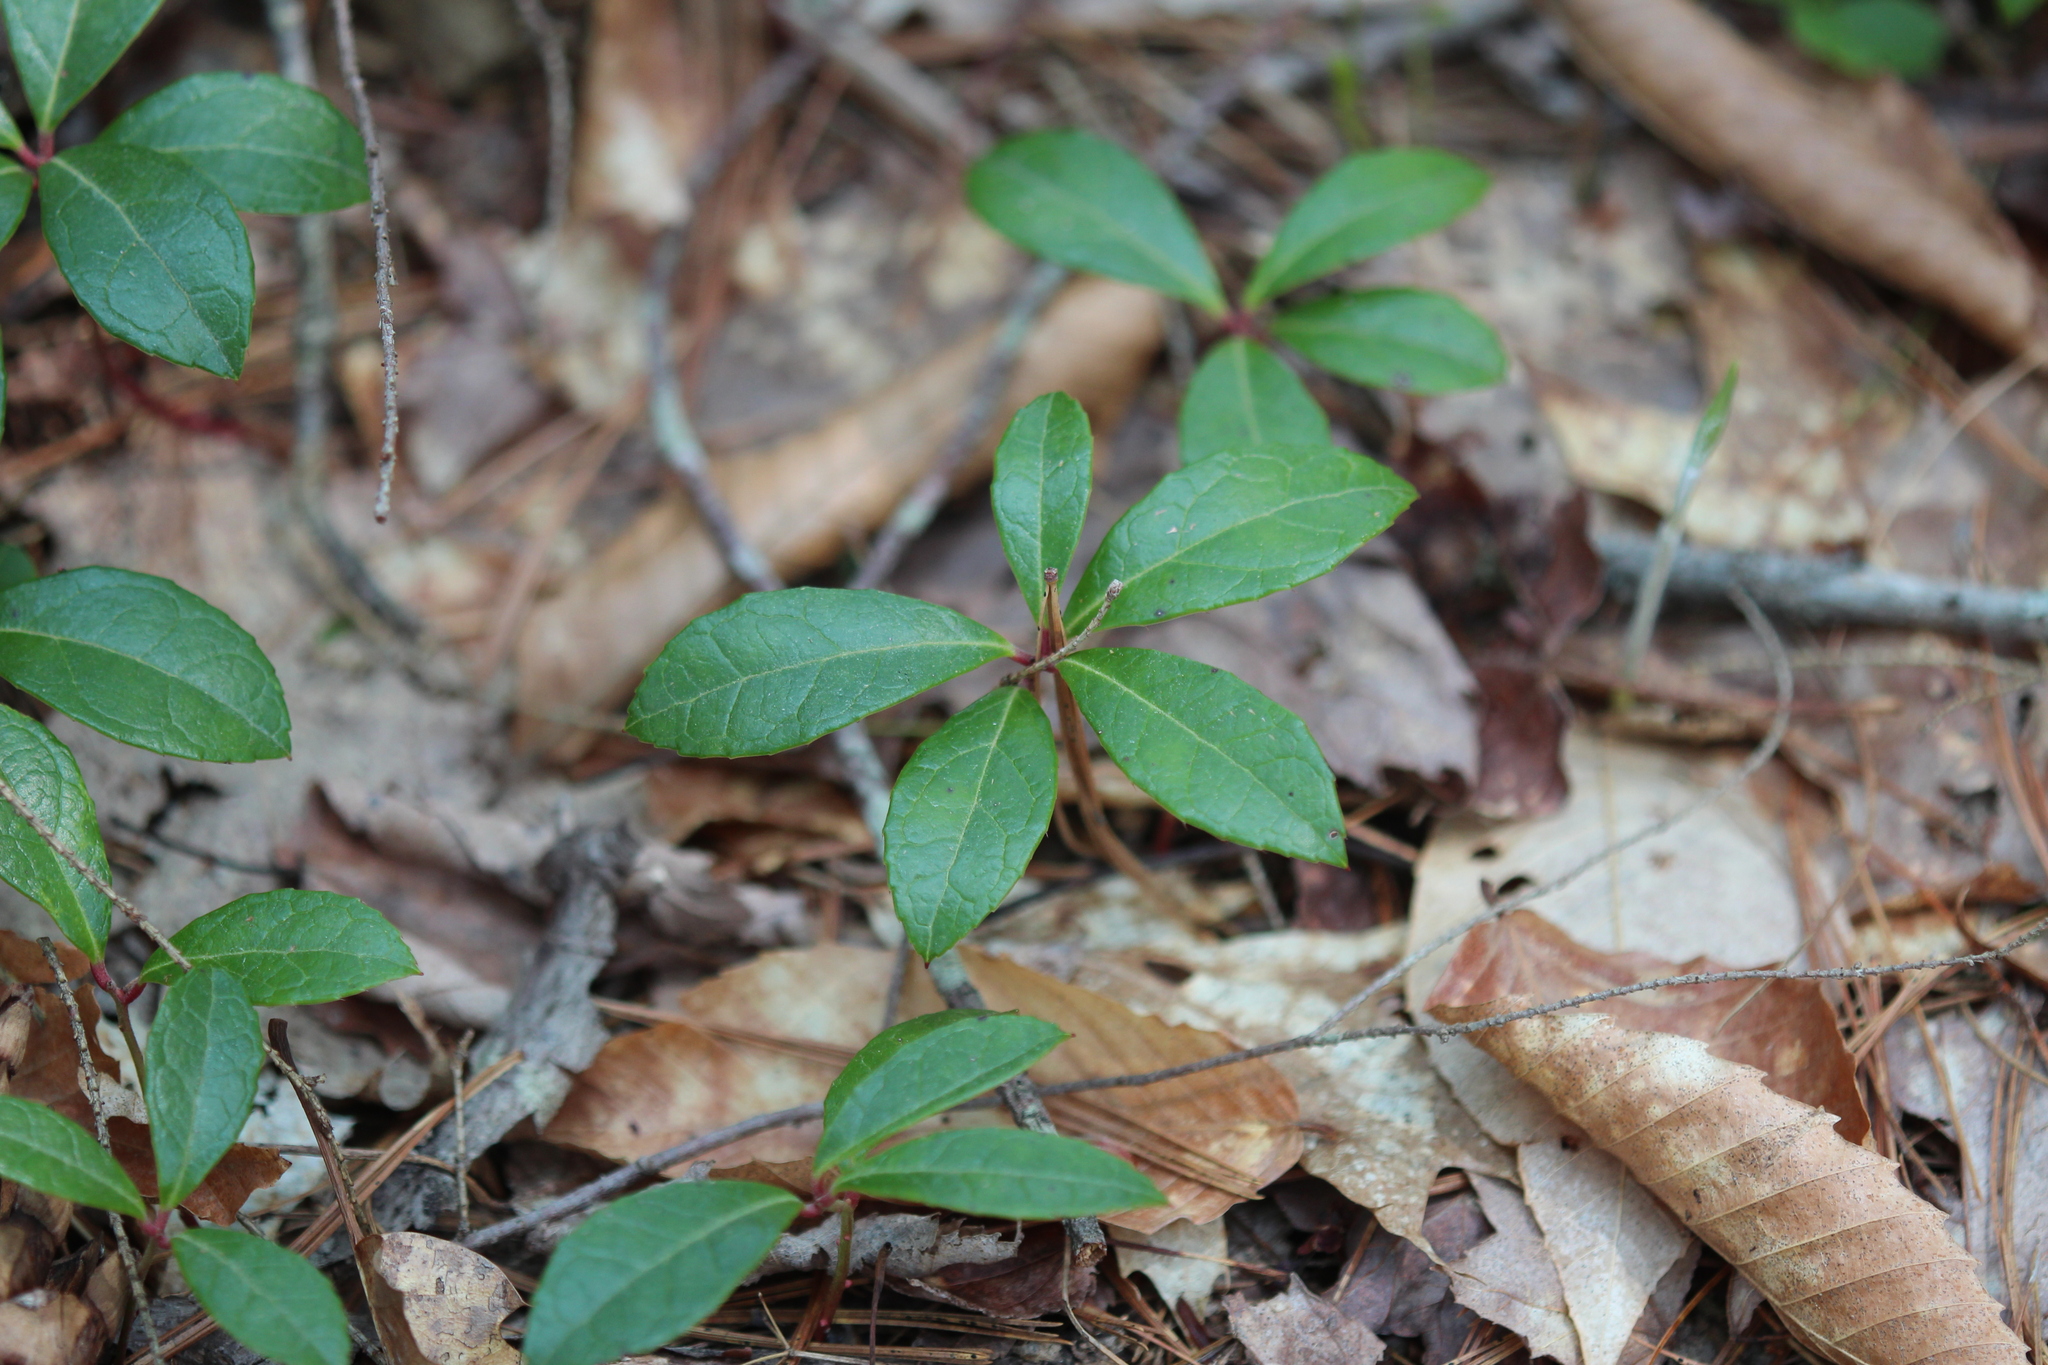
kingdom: Plantae
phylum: Tracheophyta
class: Magnoliopsida
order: Ericales
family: Ericaceae
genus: Gaultheria
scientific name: Gaultheria procumbens
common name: Checkerberry
